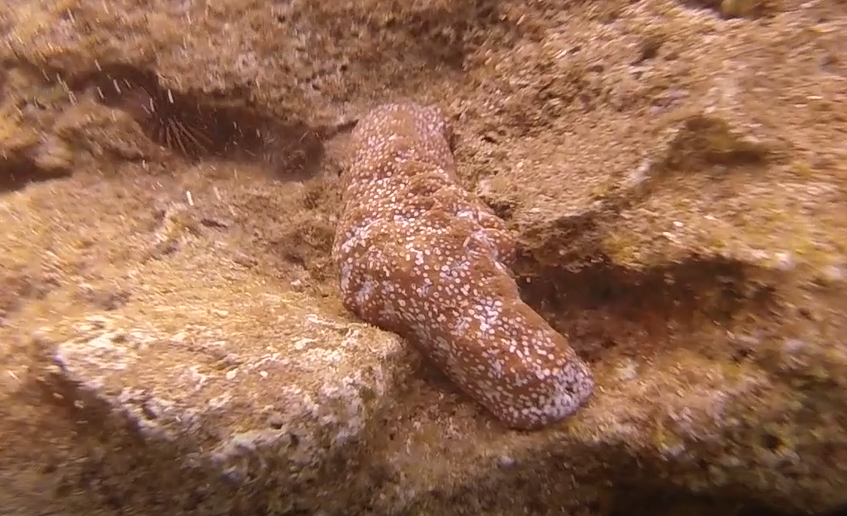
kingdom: Animalia
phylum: Echinodermata
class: Holothuroidea
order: Holothuriida
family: Holothuriidae
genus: Actinopyga
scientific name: Actinopyga varians
